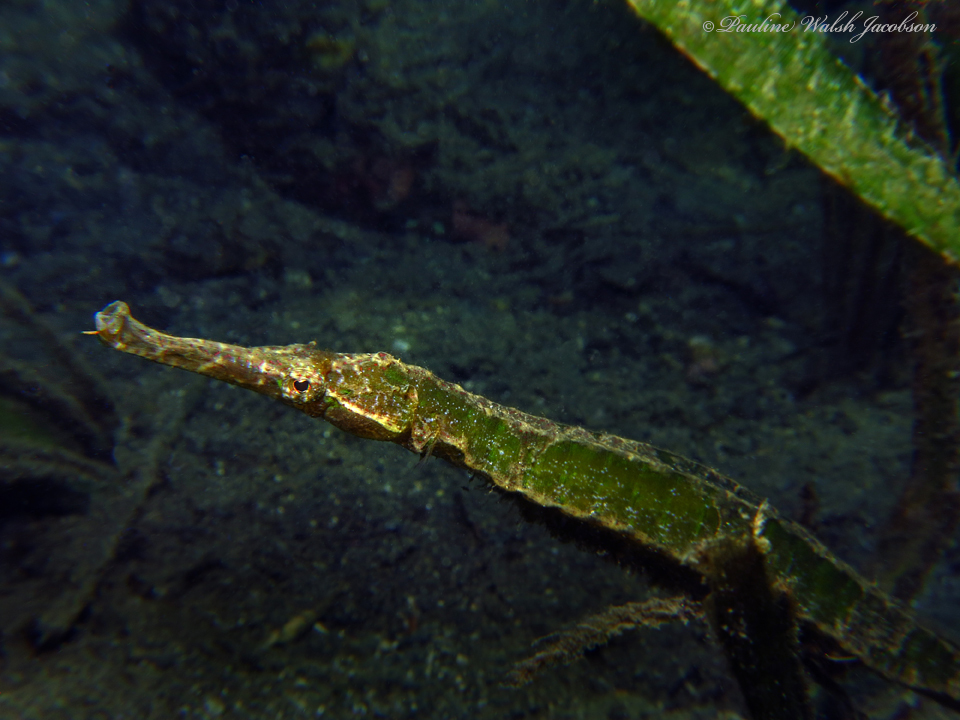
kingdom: Animalia
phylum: Chordata
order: Syngnathiformes
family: Syngnathidae
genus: Syngnathoides
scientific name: Syngnathoides biaculeatus
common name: Alligator pipefish
